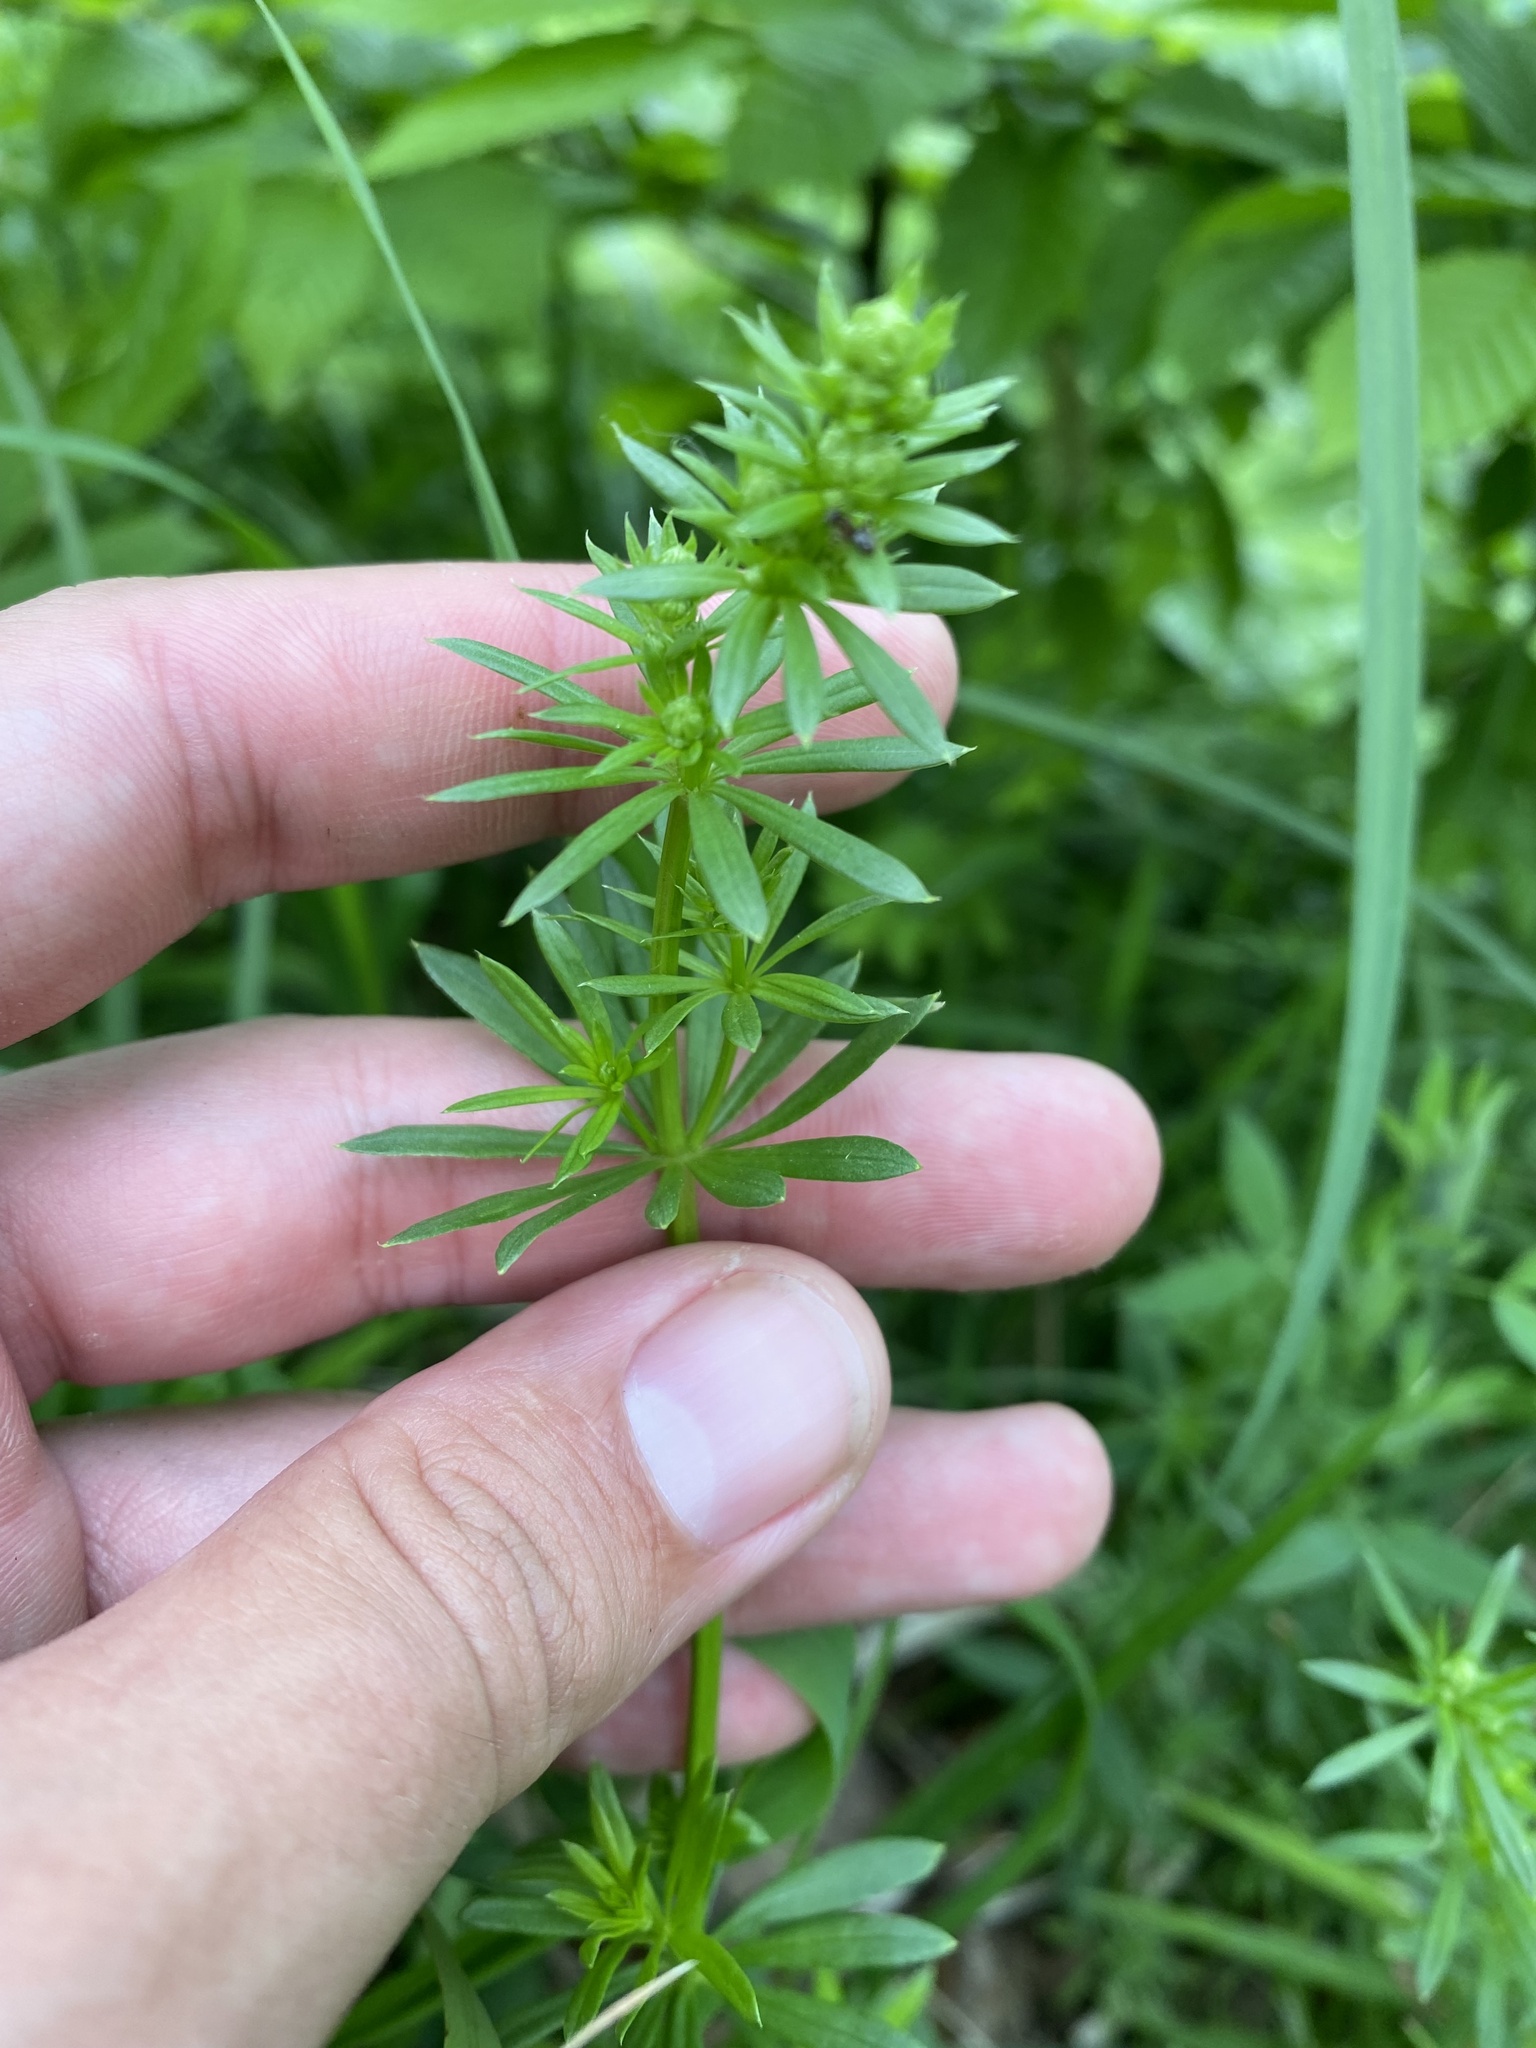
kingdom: Plantae
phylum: Tracheophyta
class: Magnoliopsida
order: Gentianales
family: Rubiaceae
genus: Galium
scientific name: Galium mollugo
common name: Hedge bedstraw
